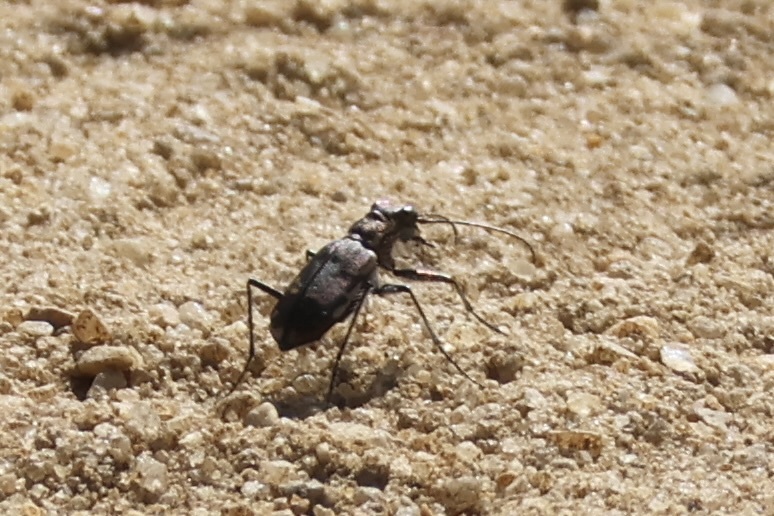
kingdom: Animalia
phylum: Arthropoda
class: Insecta
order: Coleoptera
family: Carabidae
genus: Cicindela
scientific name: Cicindela repanda
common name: Bronzed tiger beetle
